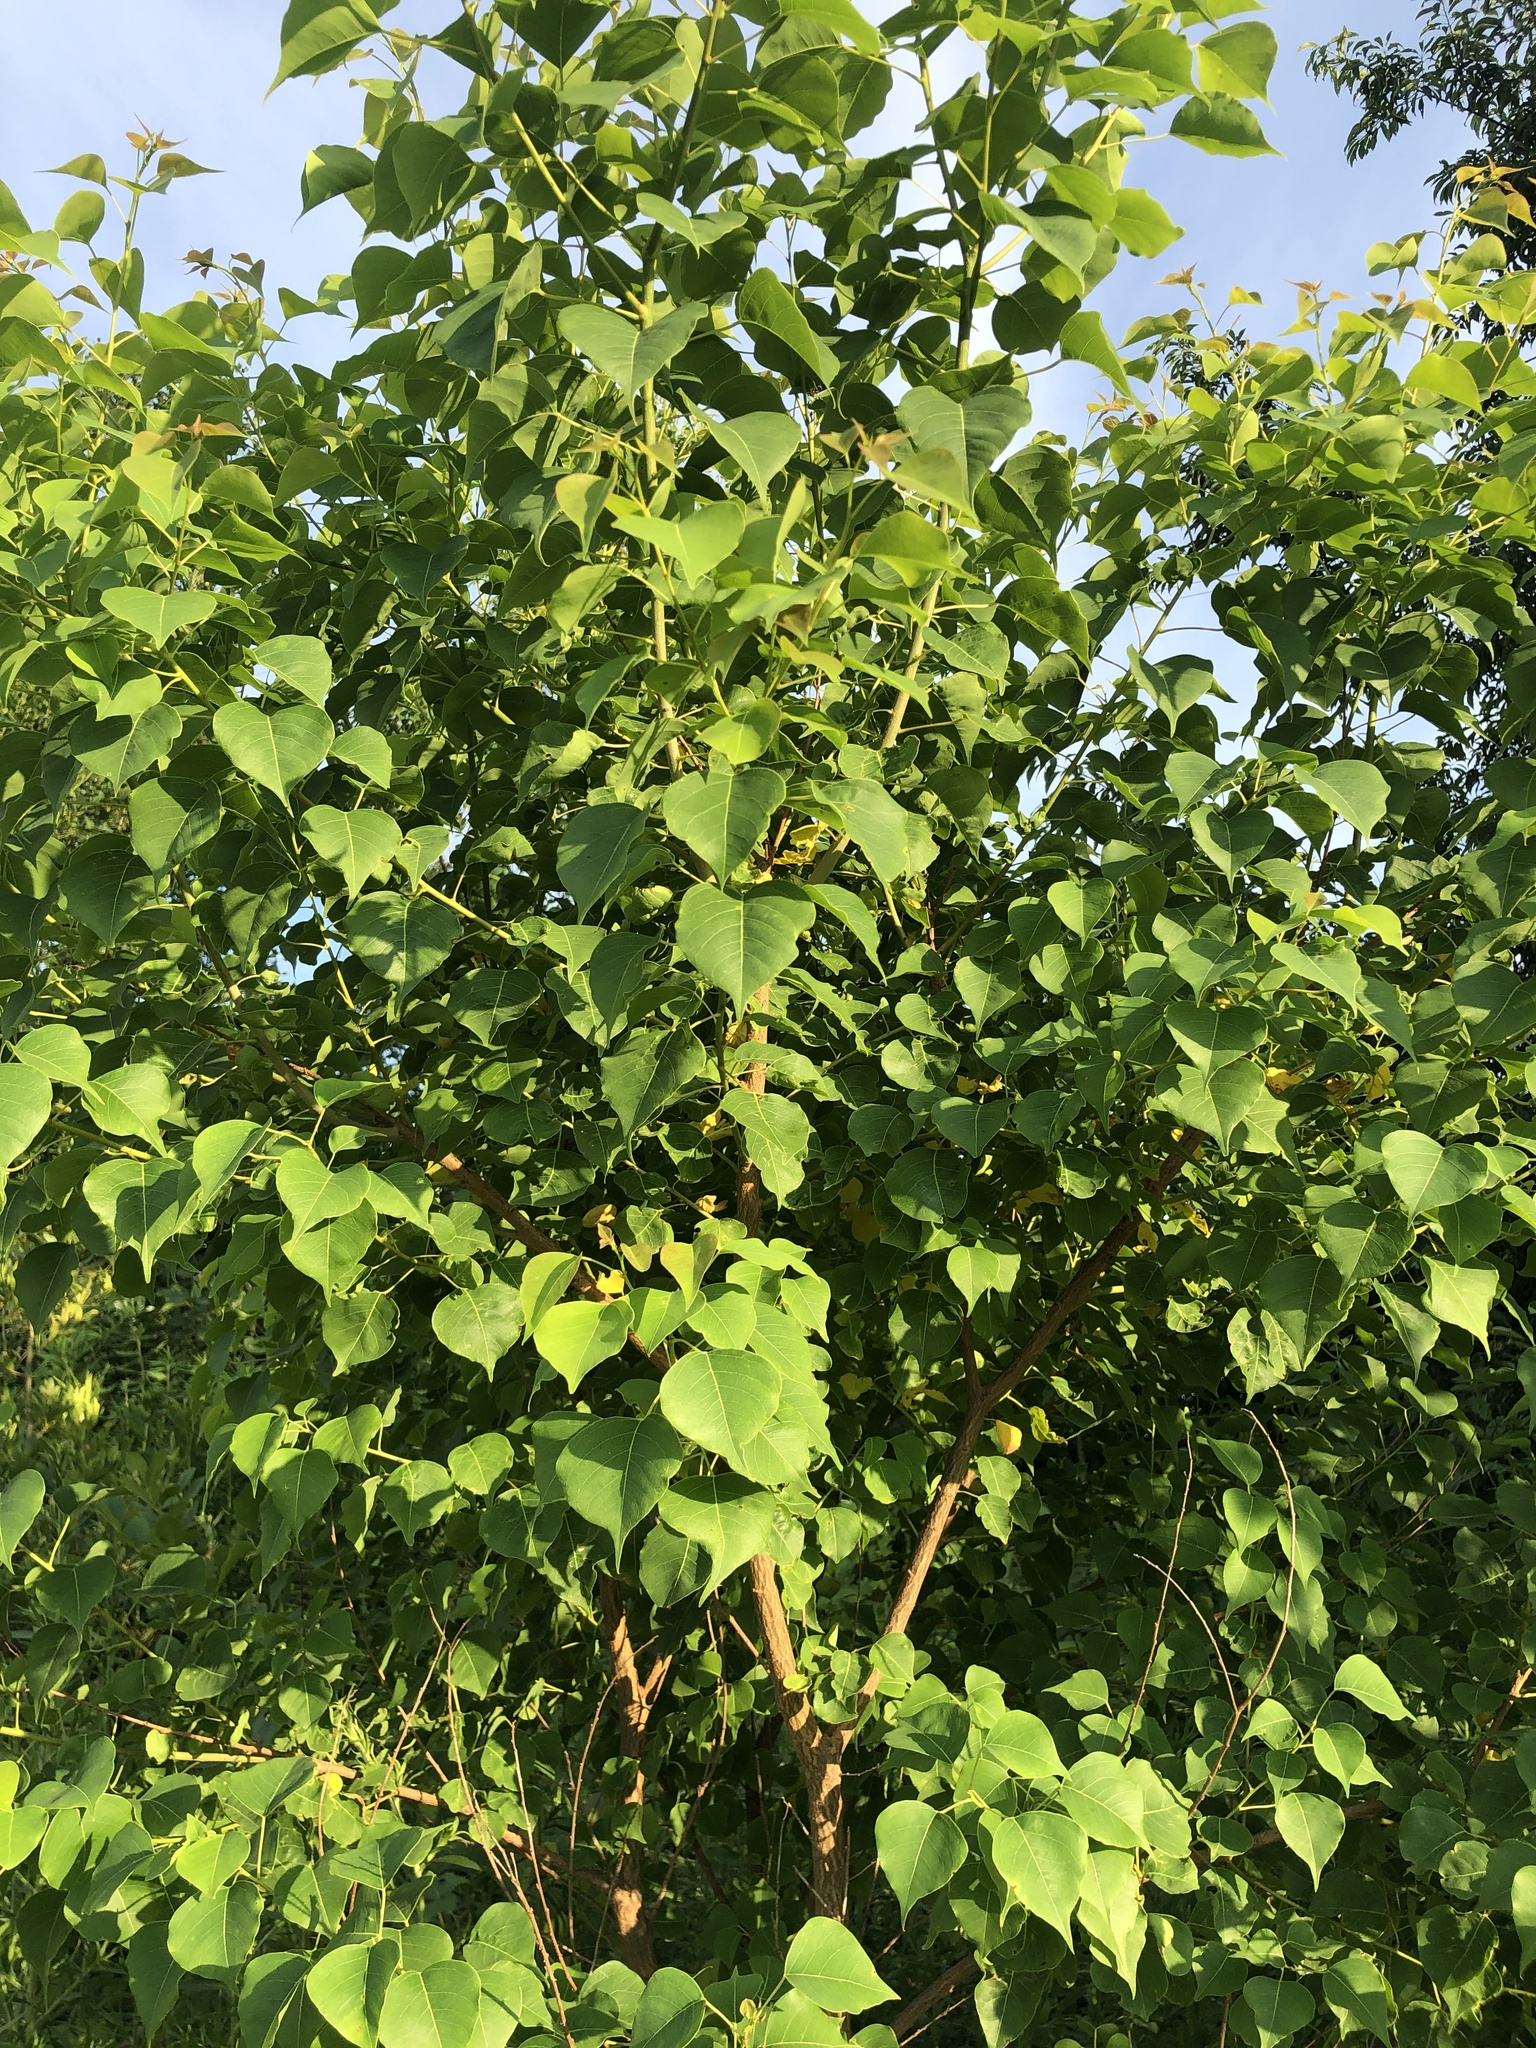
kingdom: Plantae
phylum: Tracheophyta
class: Magnoliopsida
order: Malpighiales
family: Euphorbiaceae
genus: Triadica
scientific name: Triadica sebifera
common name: Chinese tallow
